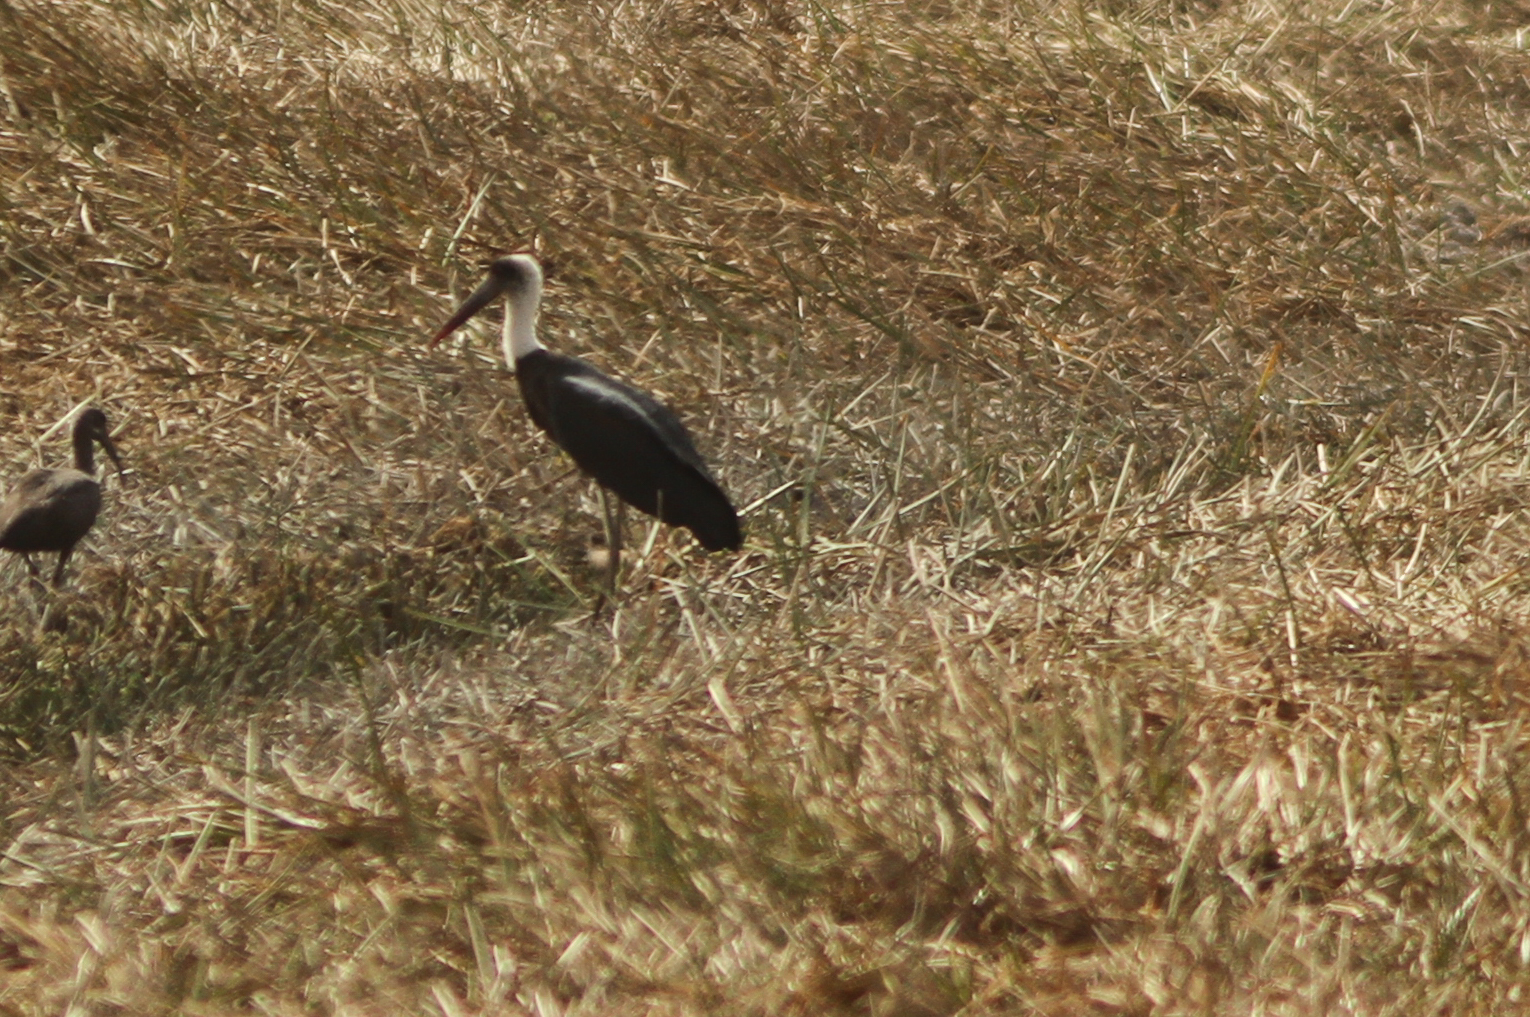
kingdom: Animalia
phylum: Chordata
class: Aves
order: Ciconiiformes
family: Ciconiidae
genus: Ciconia
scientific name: Ciconia microscelis
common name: African woollyneck
